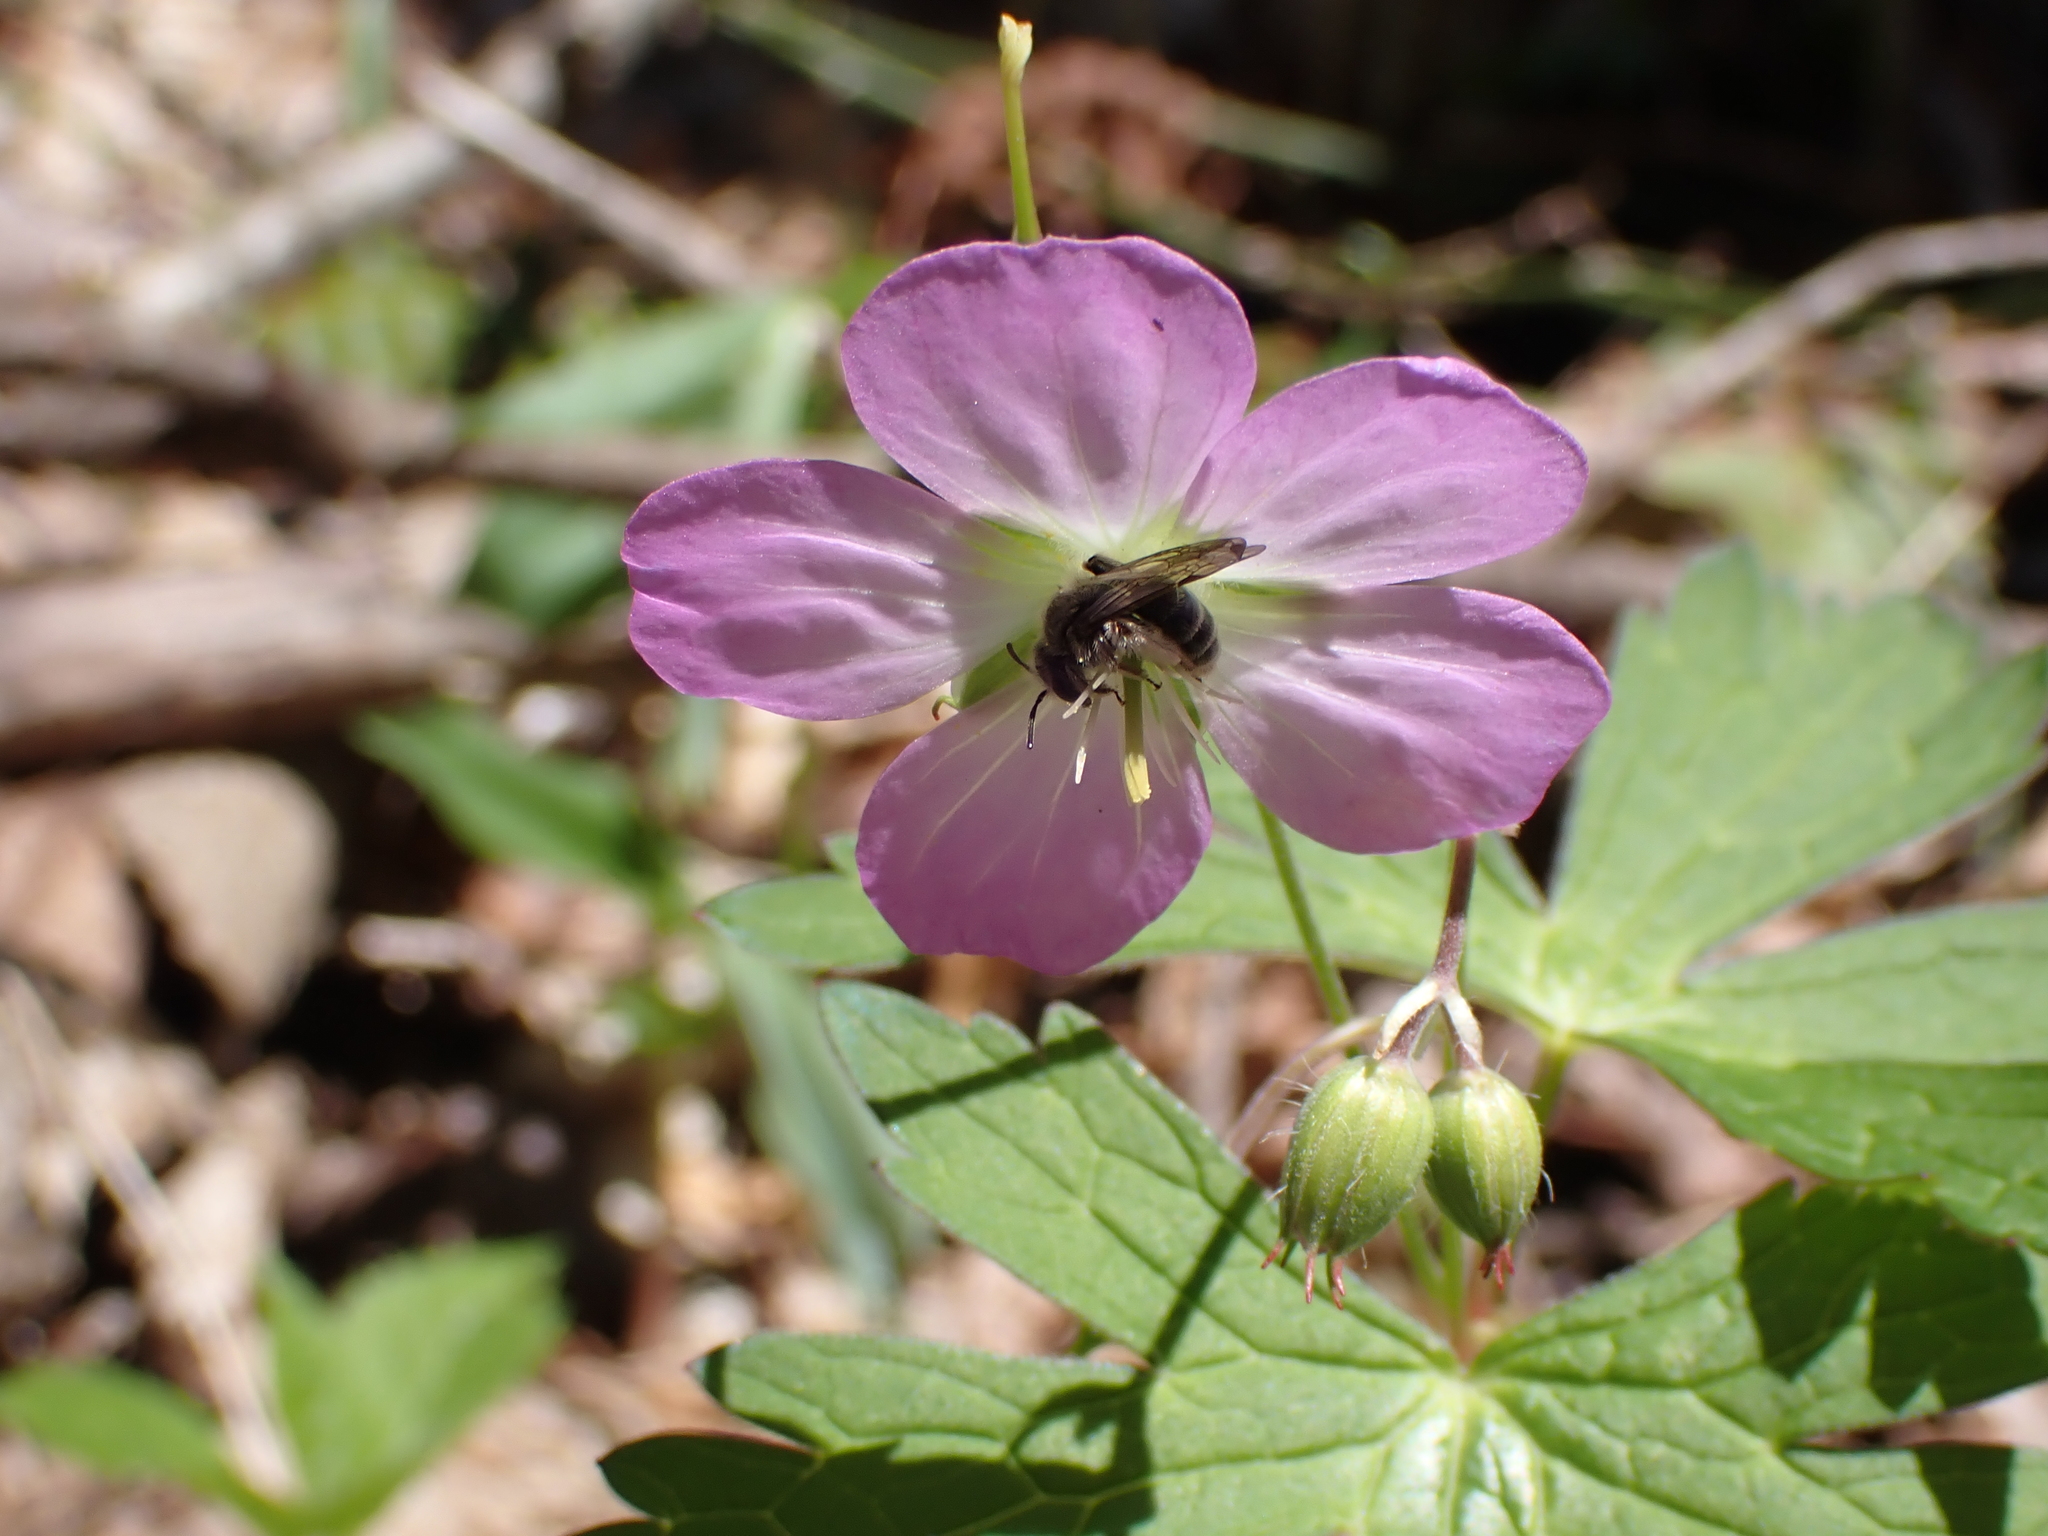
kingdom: Plantae
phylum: Tracheophyta
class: Magnoliopsida
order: Geraniales
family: Geraniaceae
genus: Geranium
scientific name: Geranium maculatum
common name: Spotted geranium
